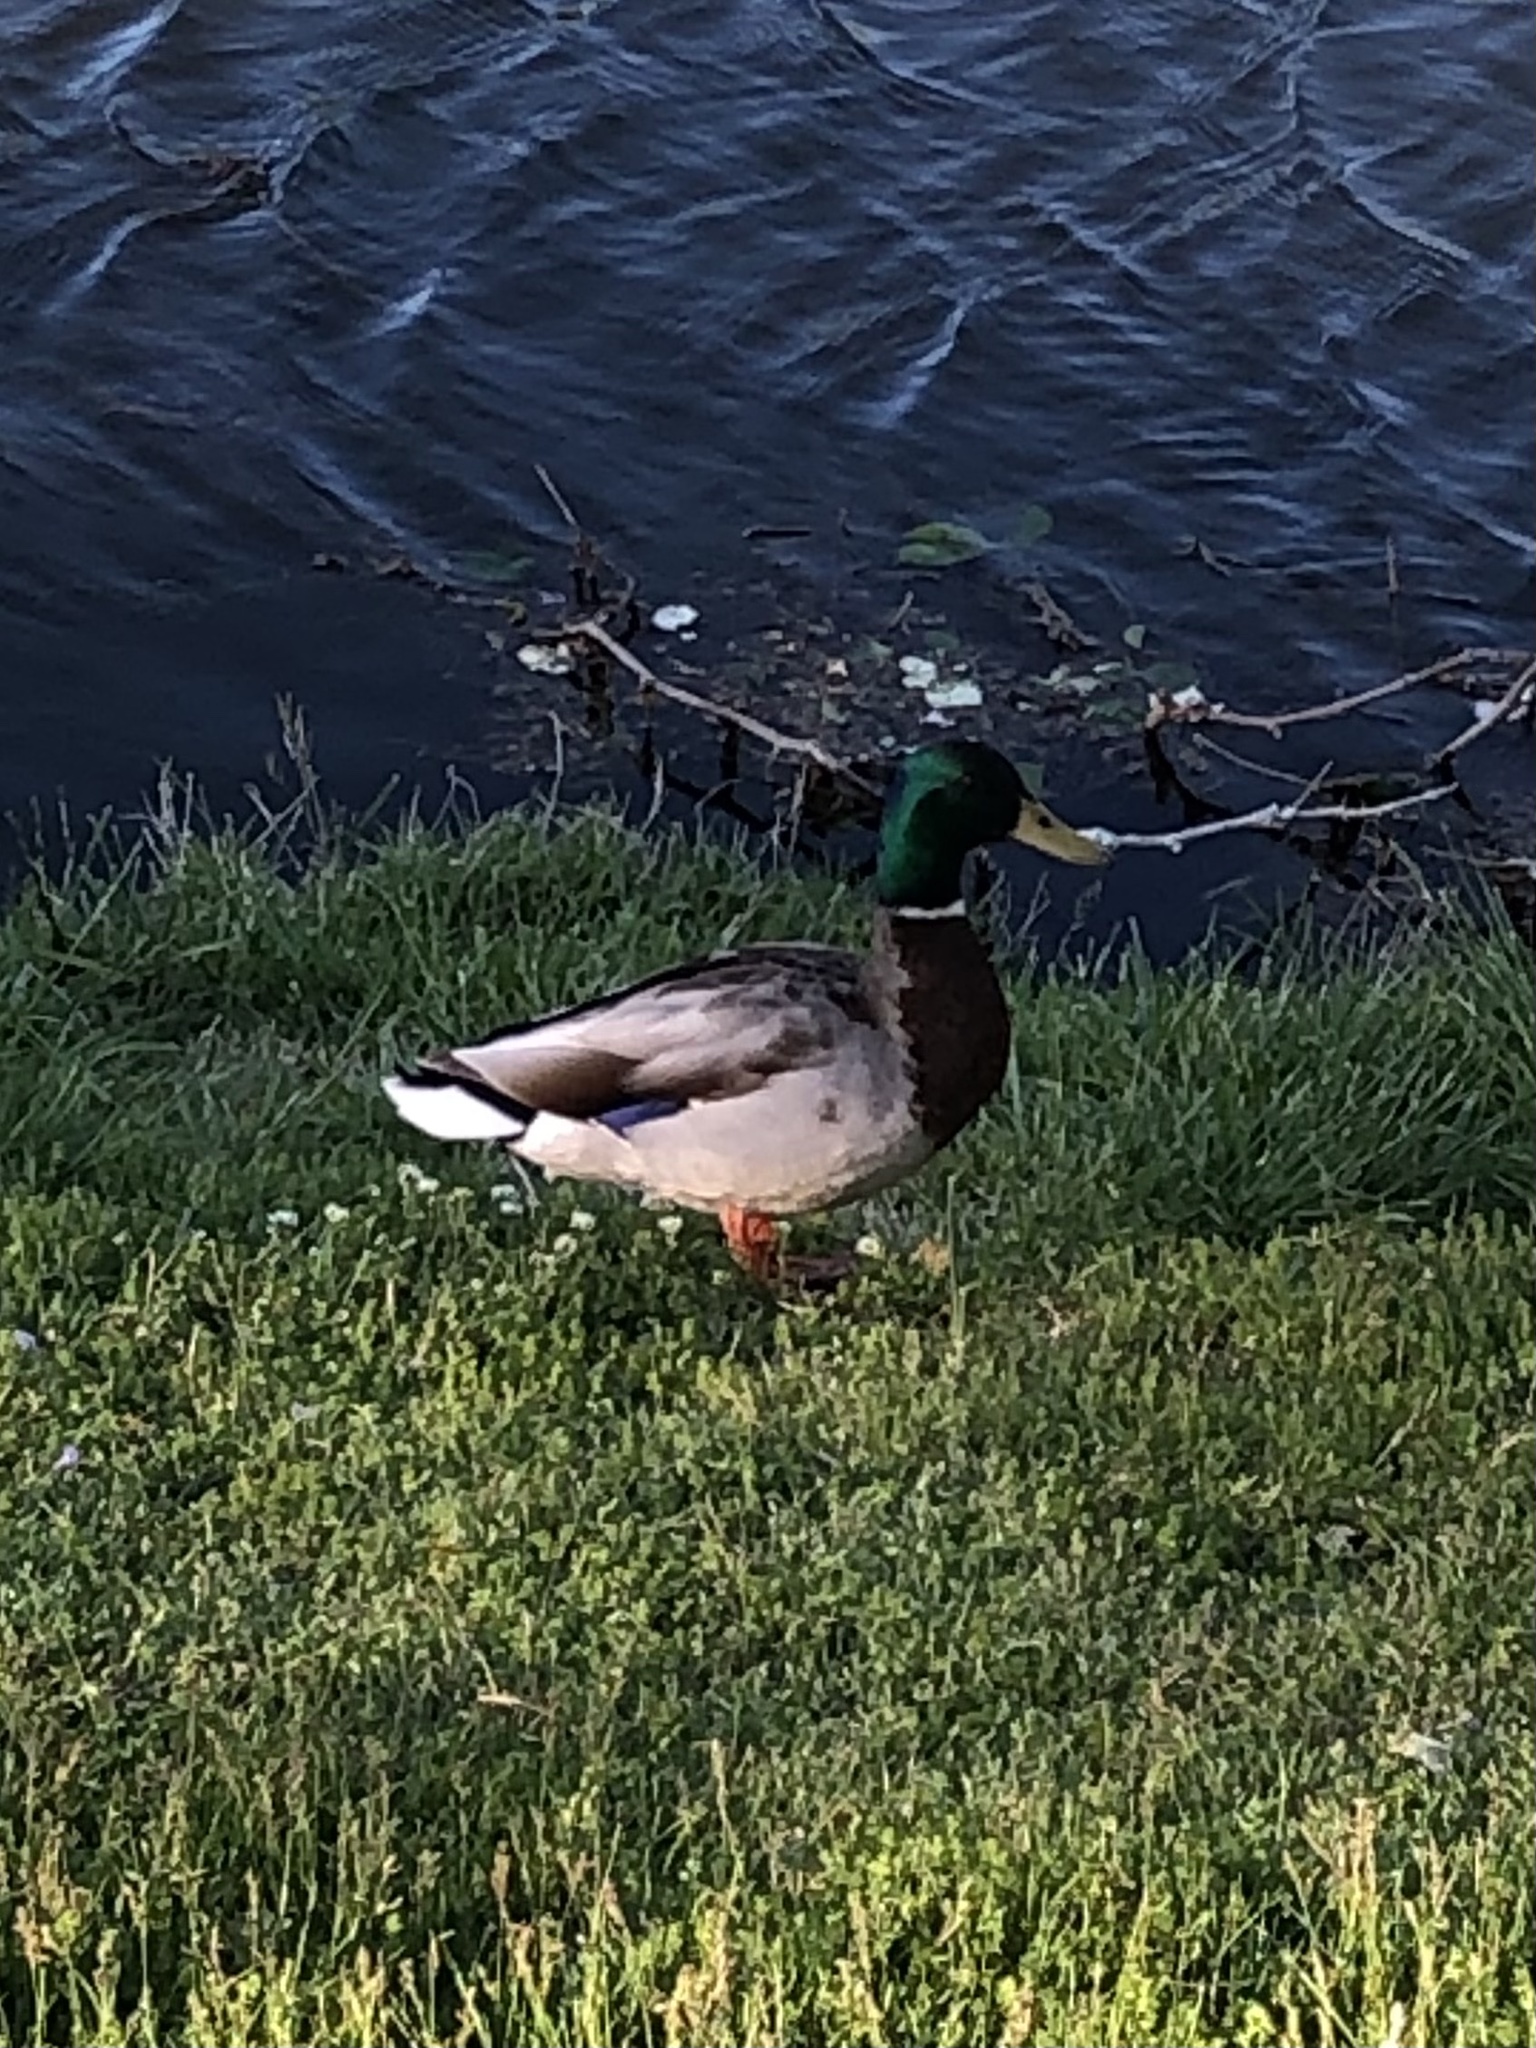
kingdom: Animalia
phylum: Chordata
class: Aves
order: Anseriformes
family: Anatidae
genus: Anas
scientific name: Anas platyrhynchos
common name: Mallard
